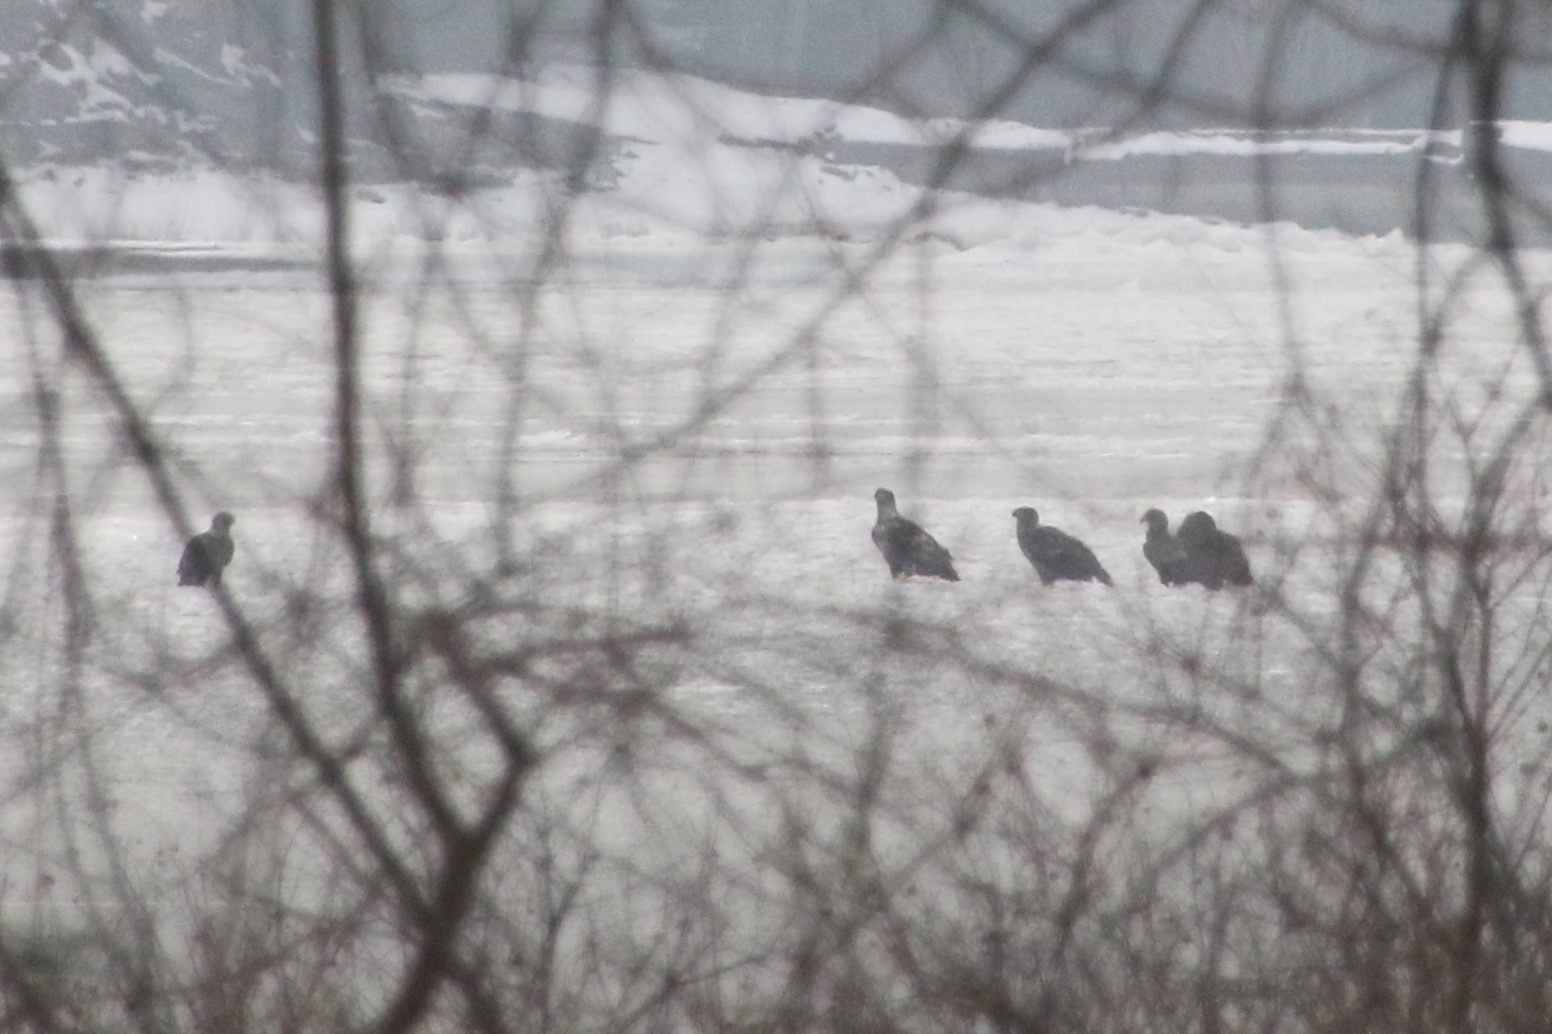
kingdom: Animalia
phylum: Chordata
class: Aves
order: Accipitriformes
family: Accipitridae
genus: Haliaeetus
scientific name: Haliaeetus leucocephalus
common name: Bald eagle
